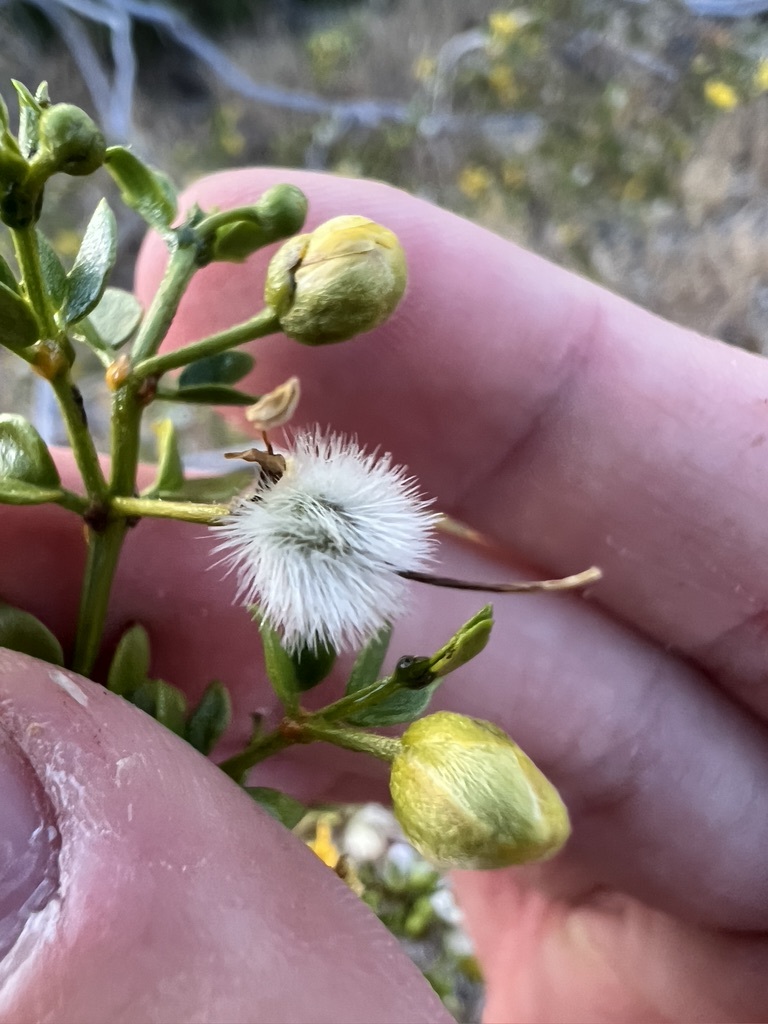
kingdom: Plantae
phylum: Tracheophyta
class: Magnoliopsida
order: Zygophyllales
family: Zygophyllaceae
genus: Larrea
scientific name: Larrea tridentata
